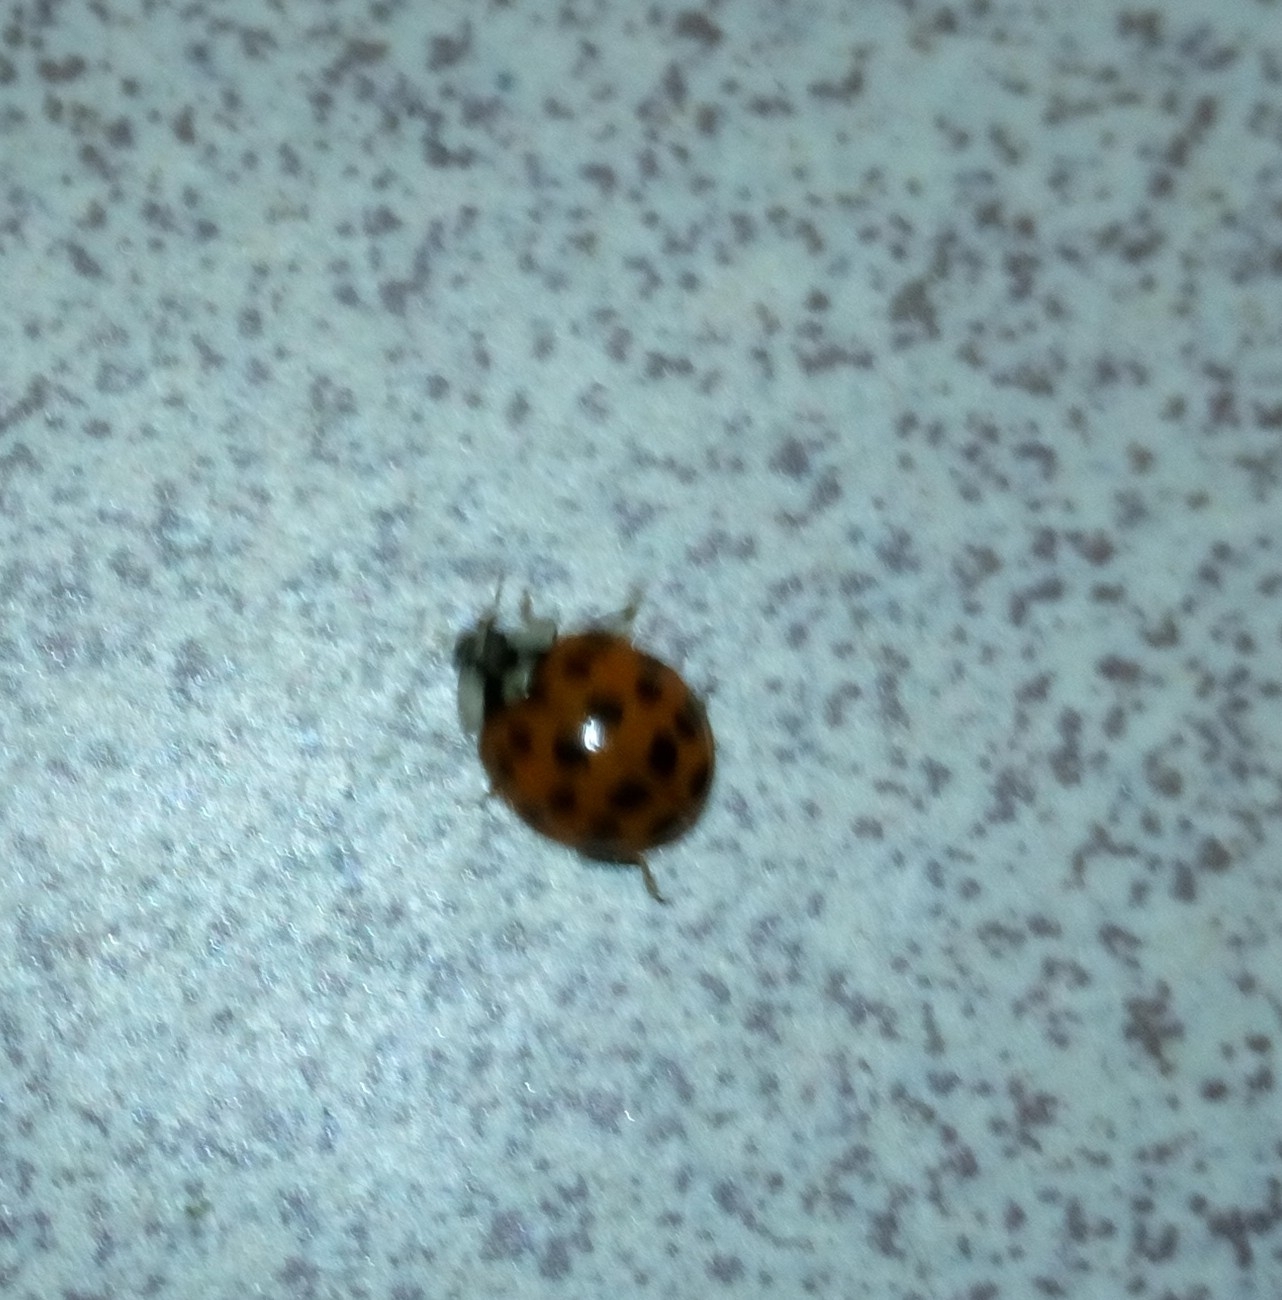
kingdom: Animalia
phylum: Arthropoda
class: Insecta
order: Coleoptera
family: Coccinellidae
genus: Harmonia
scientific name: Harmonia axyridis
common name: Harlequin ladybird
